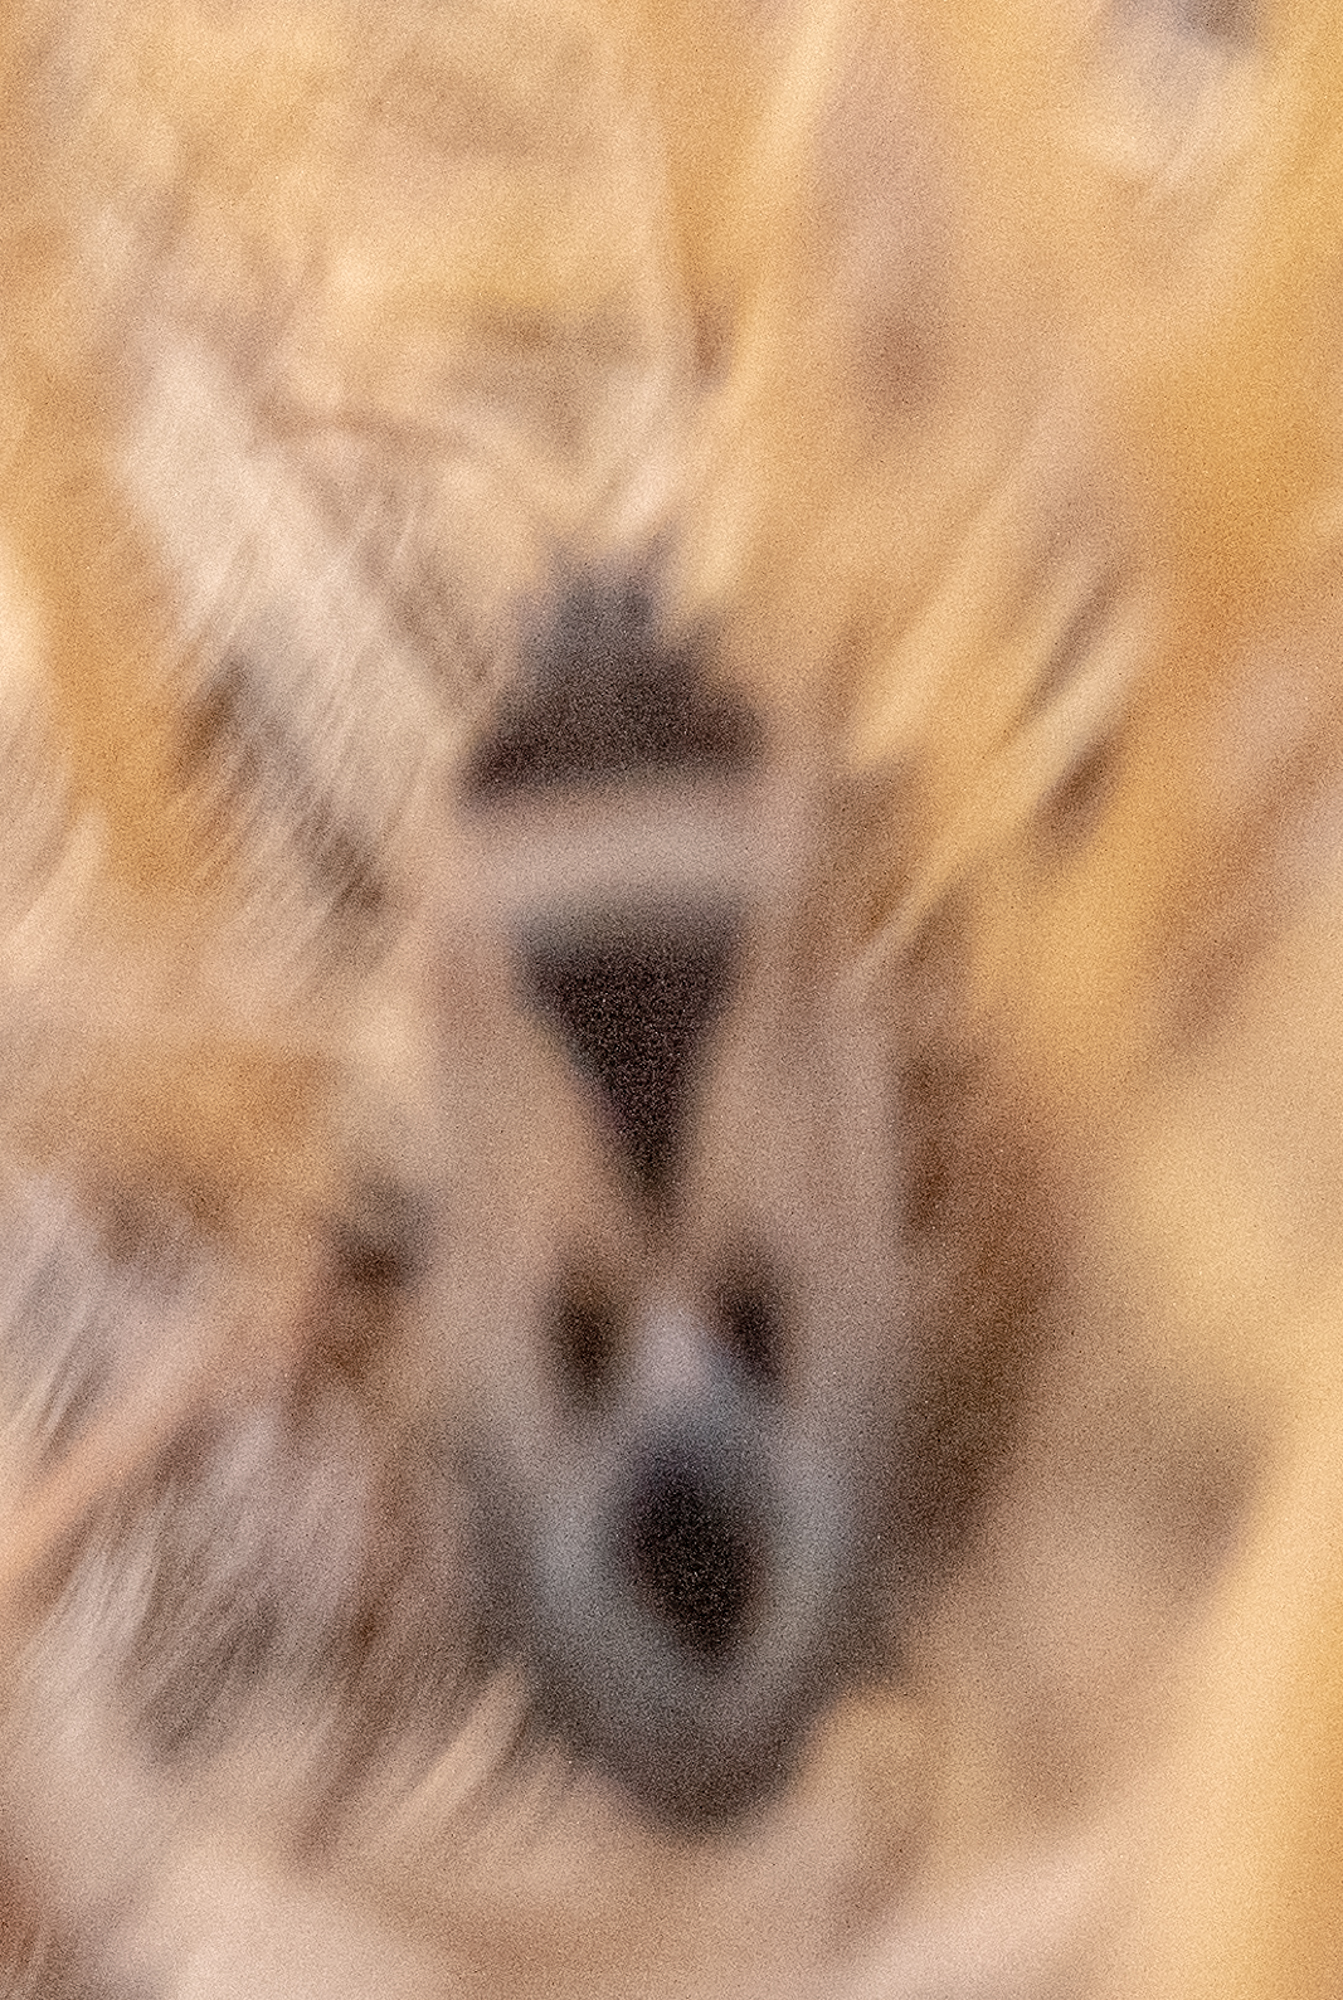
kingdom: Animalia
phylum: Arthropoda
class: Insecta
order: Hemiptera
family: Rhyparochromidae
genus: Xanthochilus
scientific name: Xanthochilus saturnius
